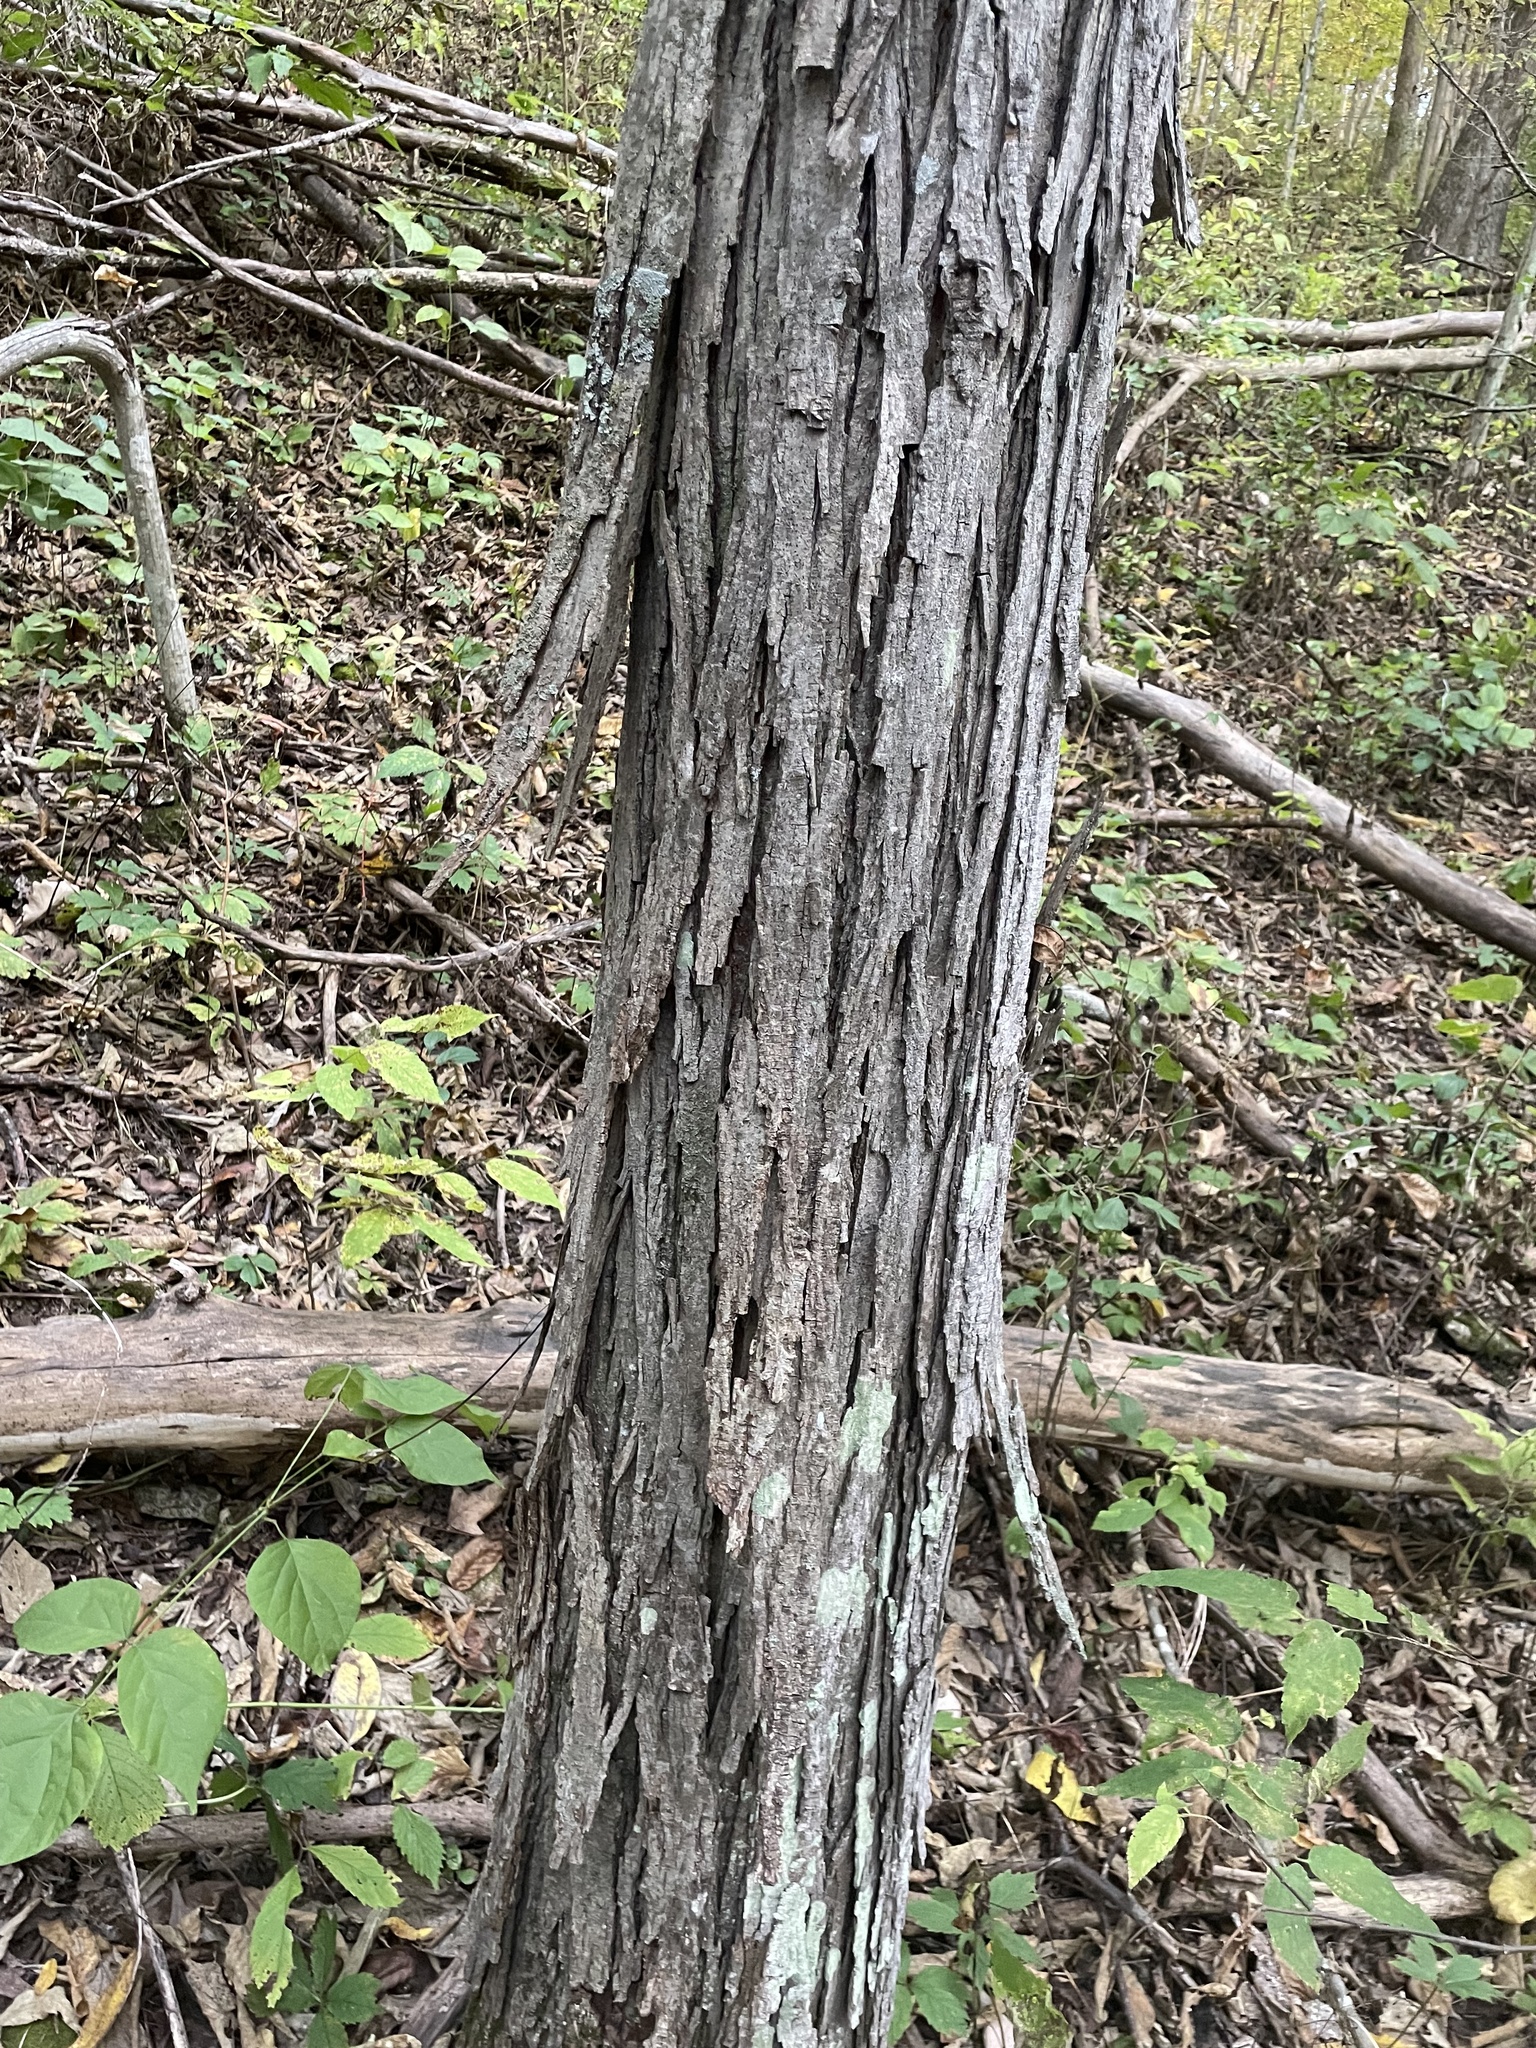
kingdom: Plantae
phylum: Tracheophyta
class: Magnoliopsida
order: Fagales
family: Juglandaceae
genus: Carya
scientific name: Carya ovata
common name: Shagbark hickory
